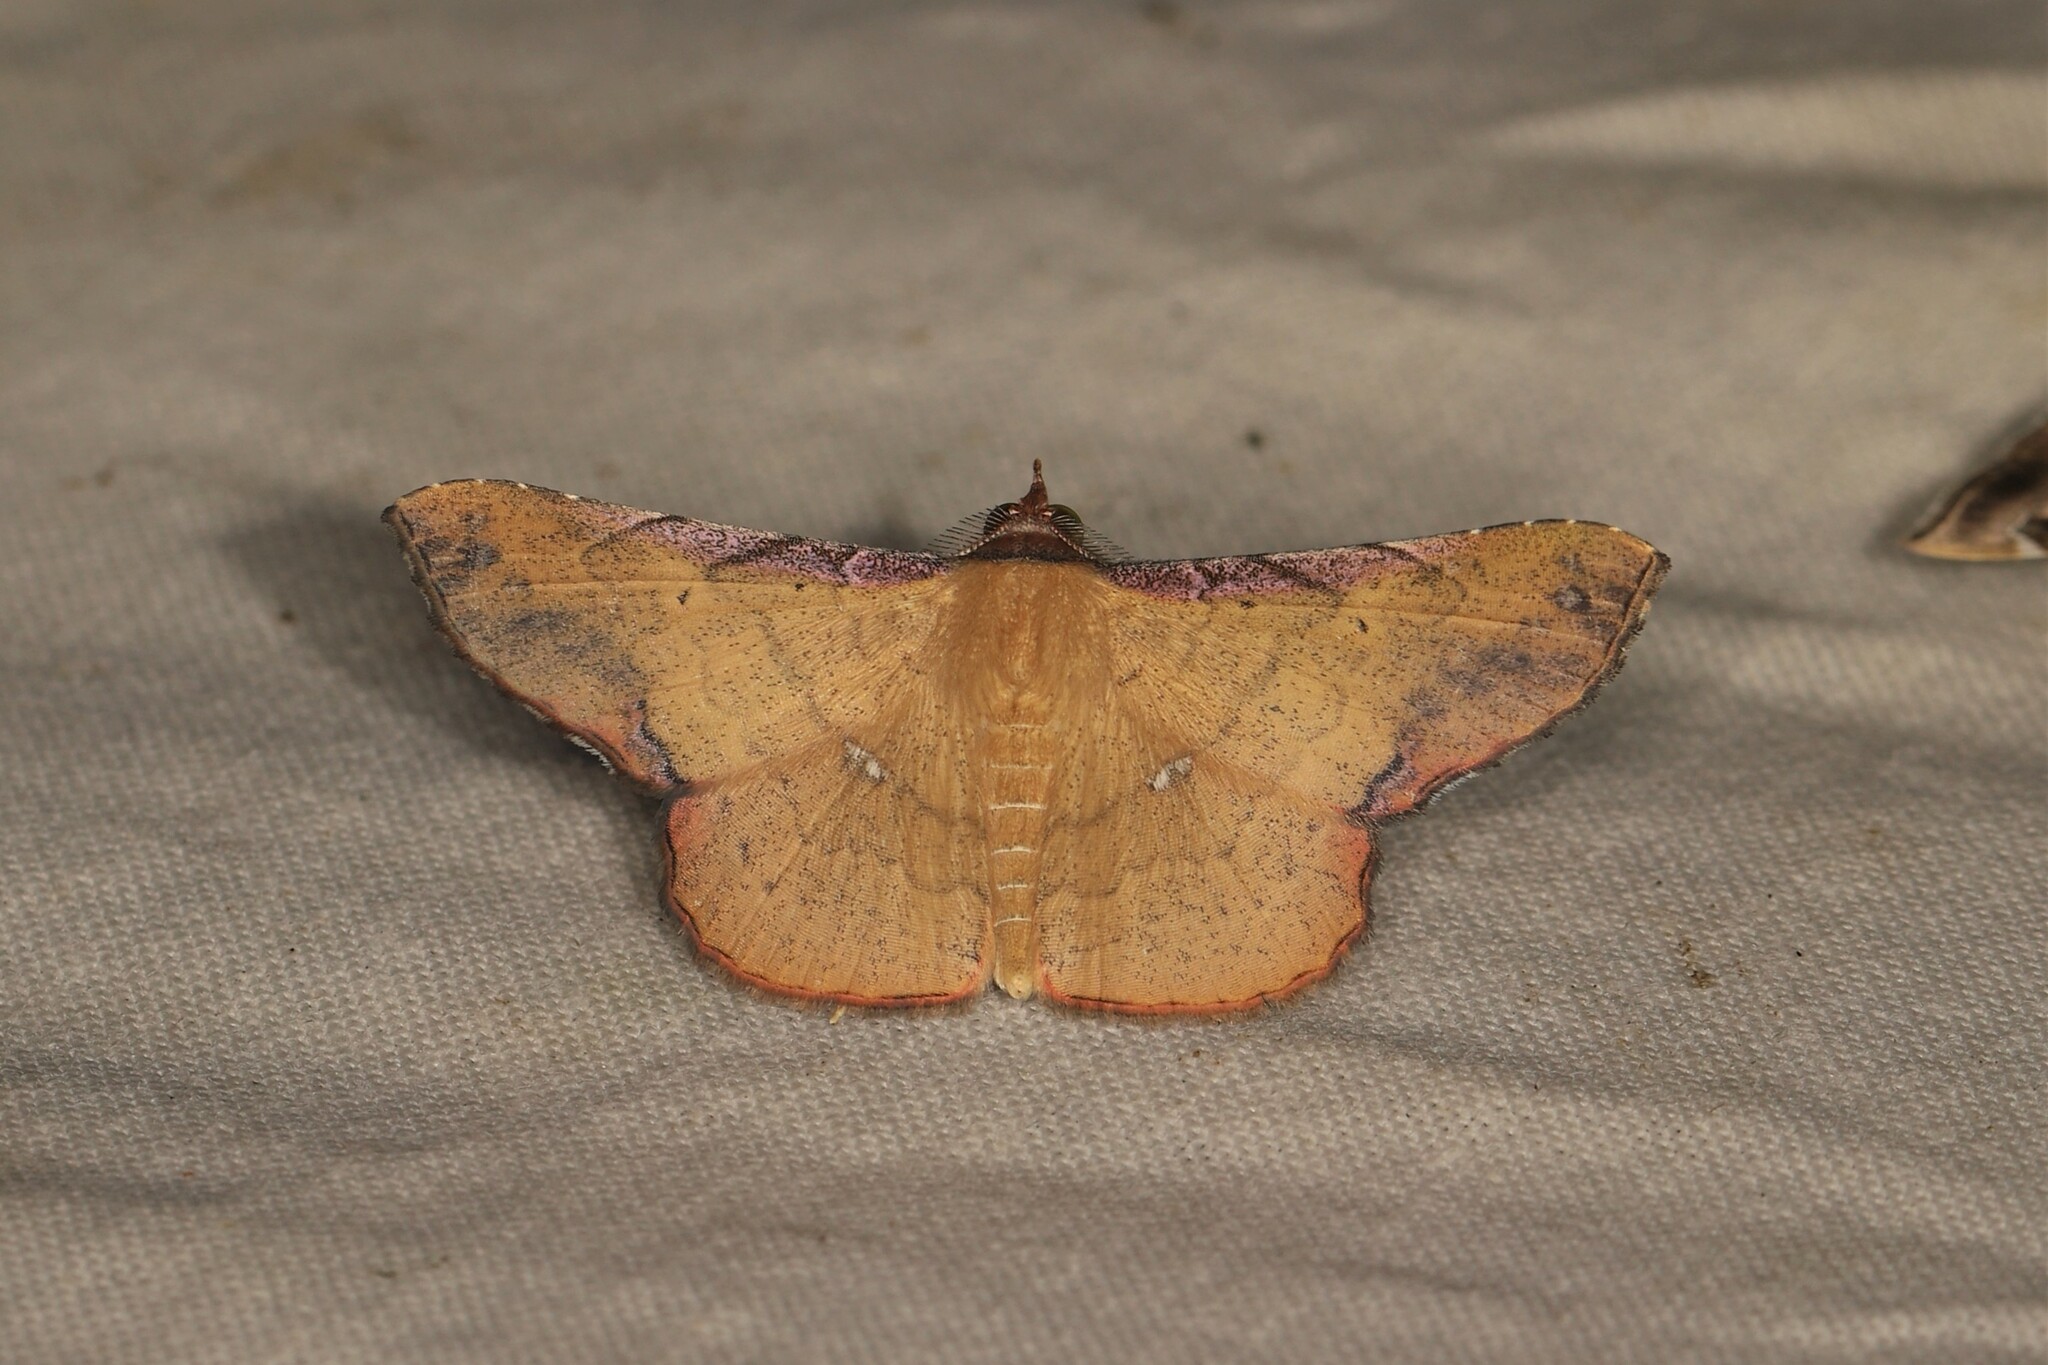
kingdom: Animalia
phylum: Arthropoda
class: Insecta
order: Lepidoptera
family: Erebidae
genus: Cryptochrostis
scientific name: Cryptochrostis fulveola
